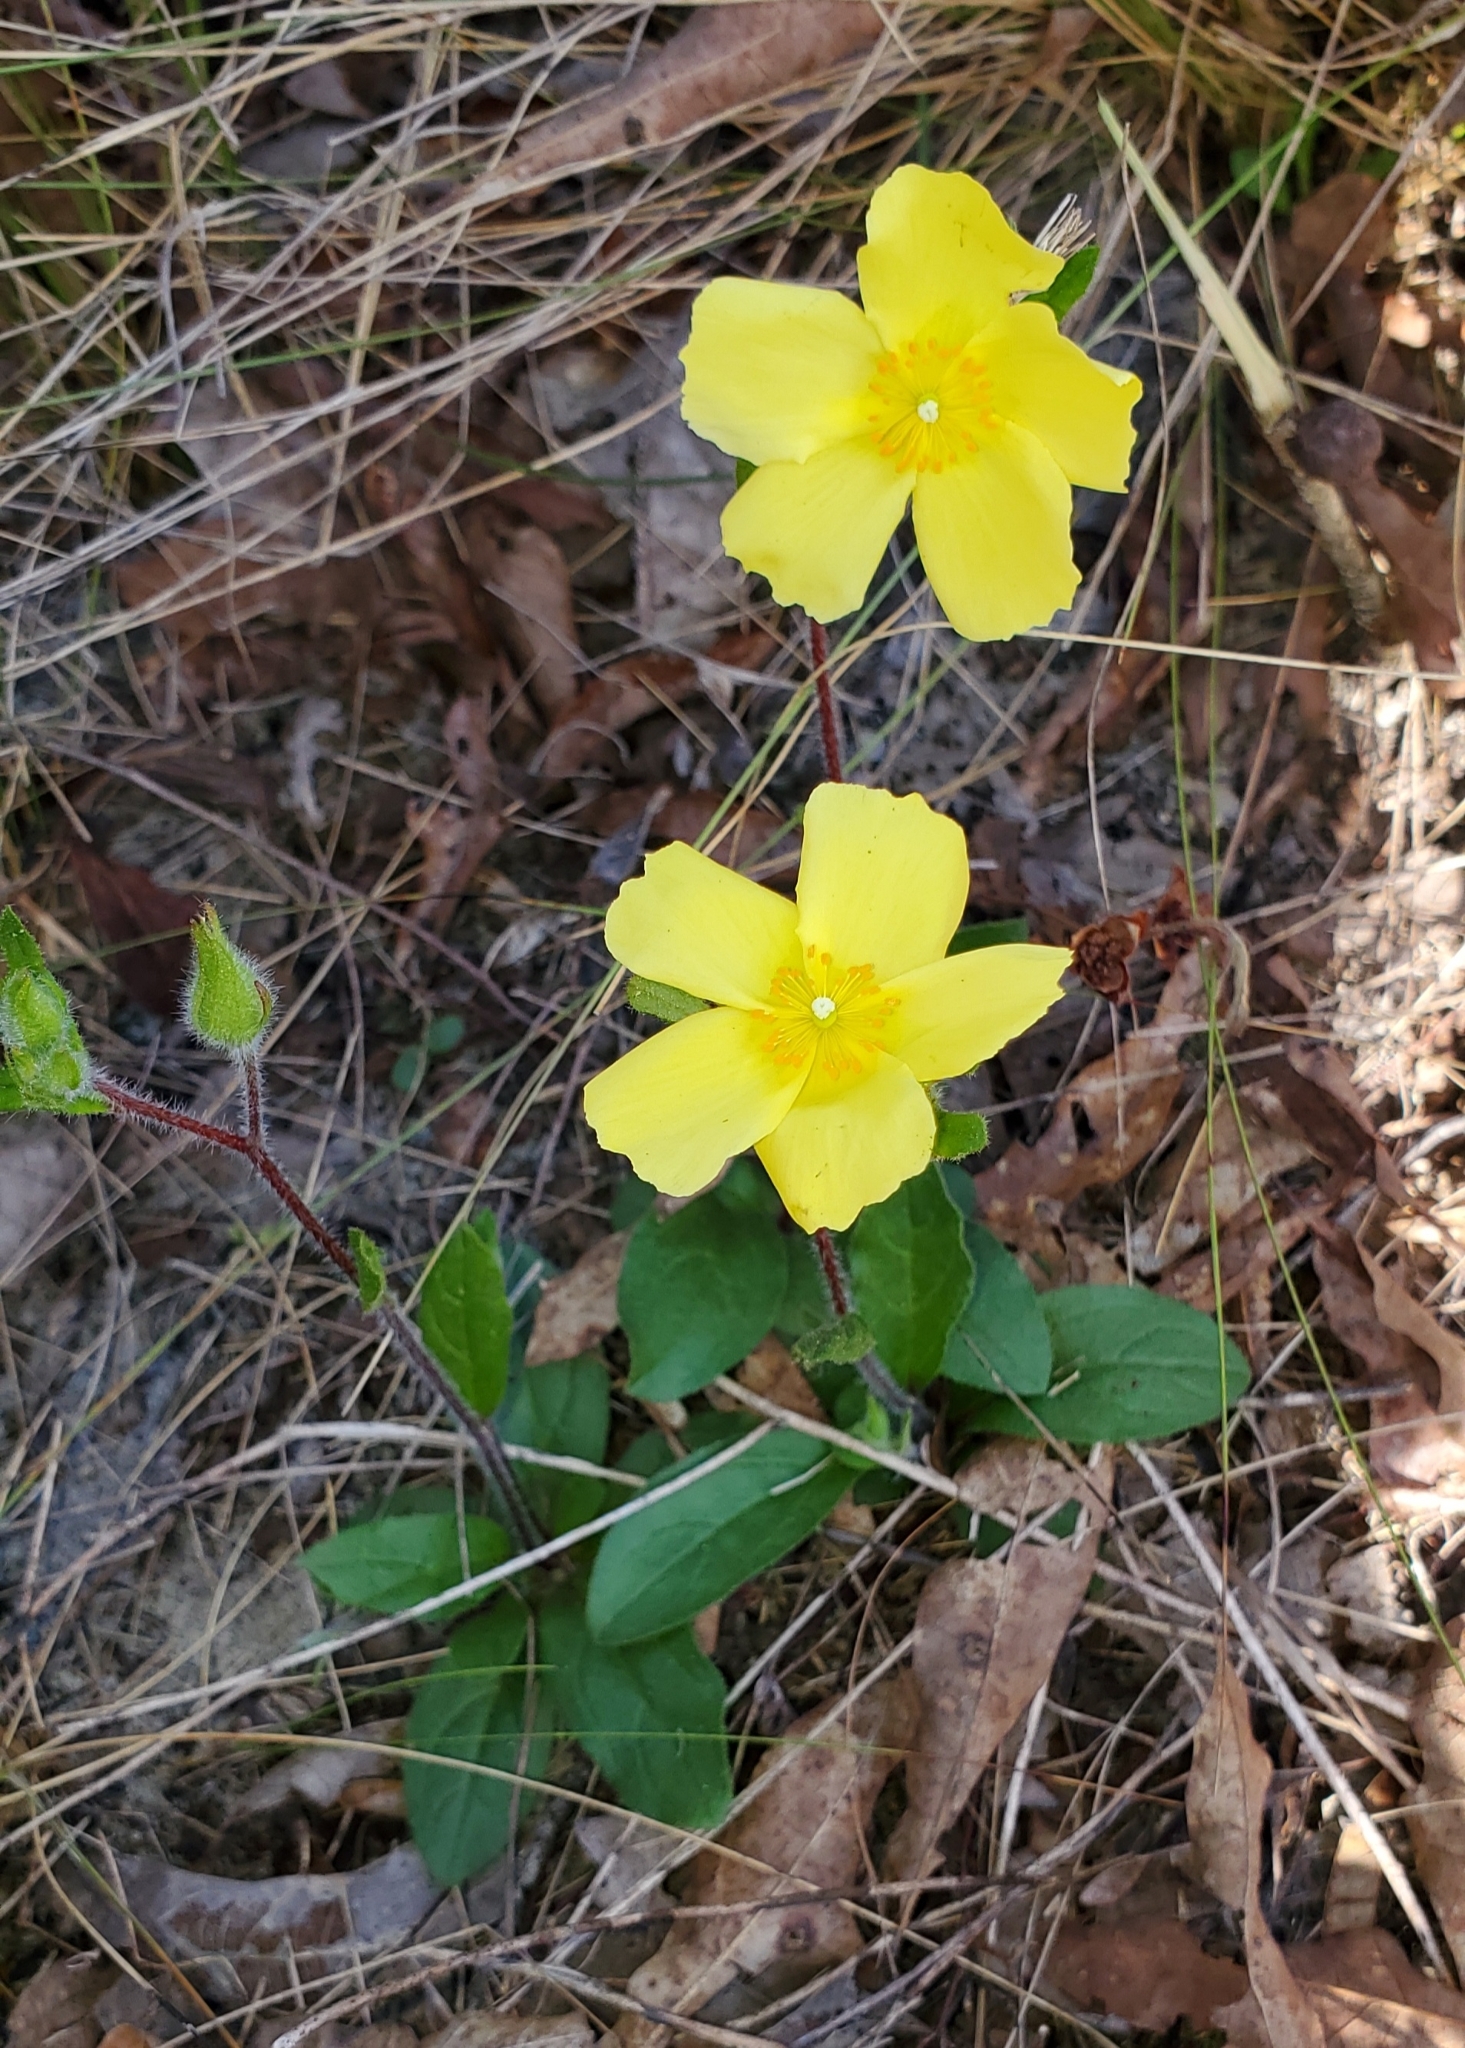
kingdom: Plantae
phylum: Tracheophyta
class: Magnoliopsida
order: Malvales
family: Cistaceae
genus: Crocanthemum
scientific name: Crocanthemum carolinianum
